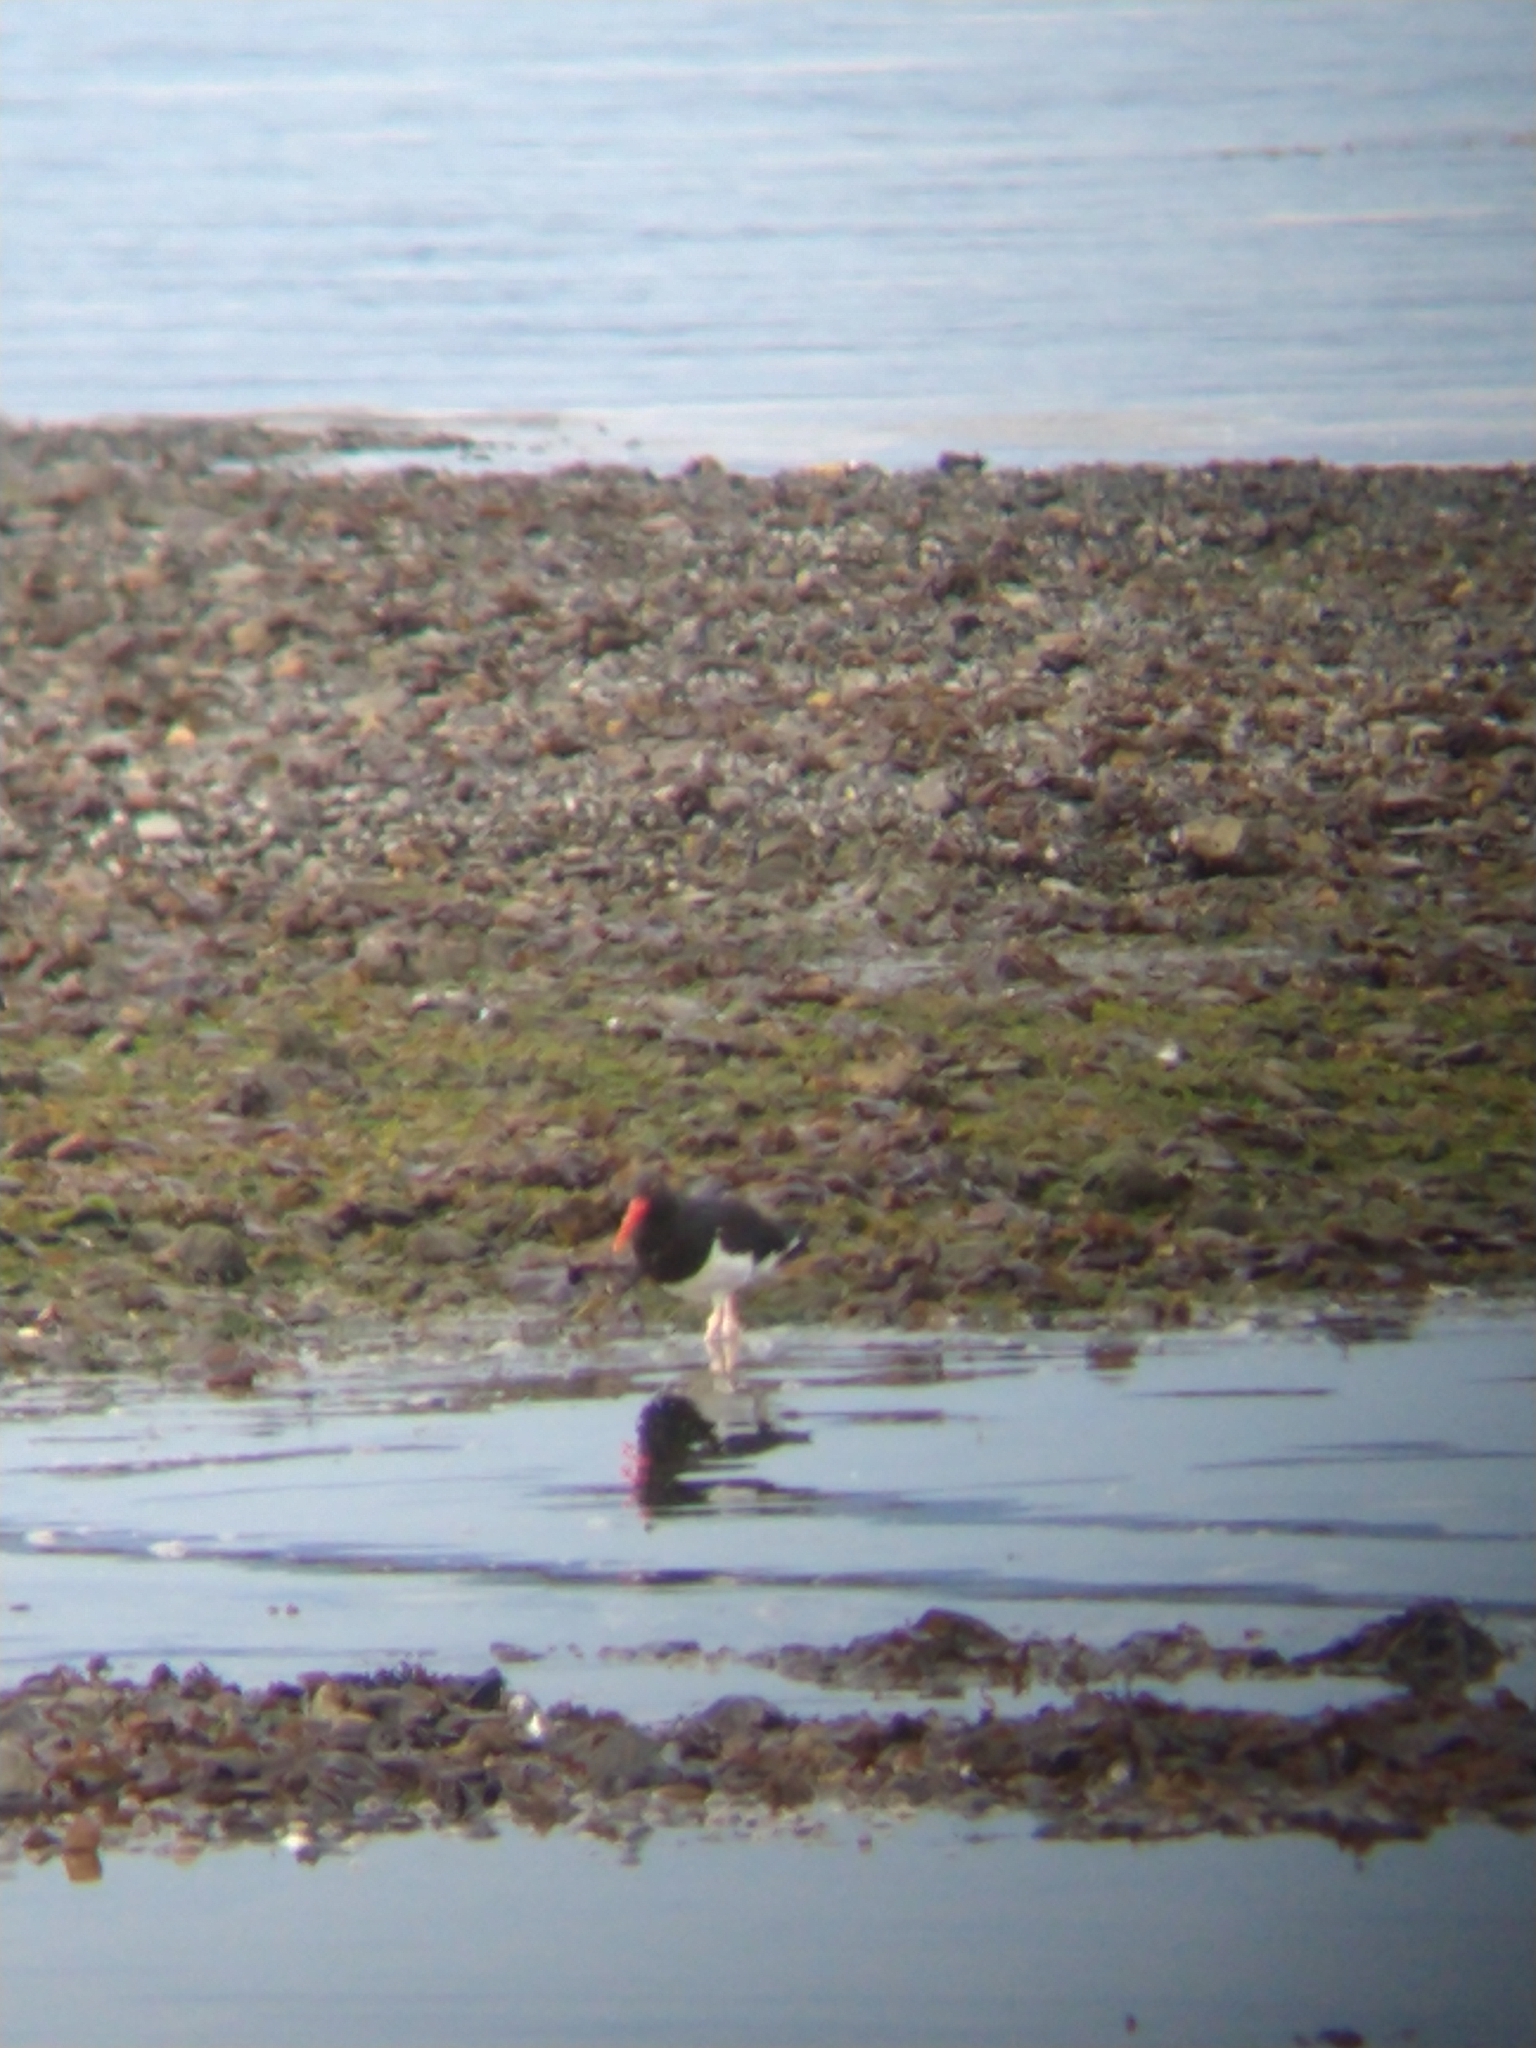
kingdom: Animalia
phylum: Chordata
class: Aves
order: Charadriiformes
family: Haematopodidae
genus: Haematopus
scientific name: Haematopus leucopodus
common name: Magellanic oystercatcher
